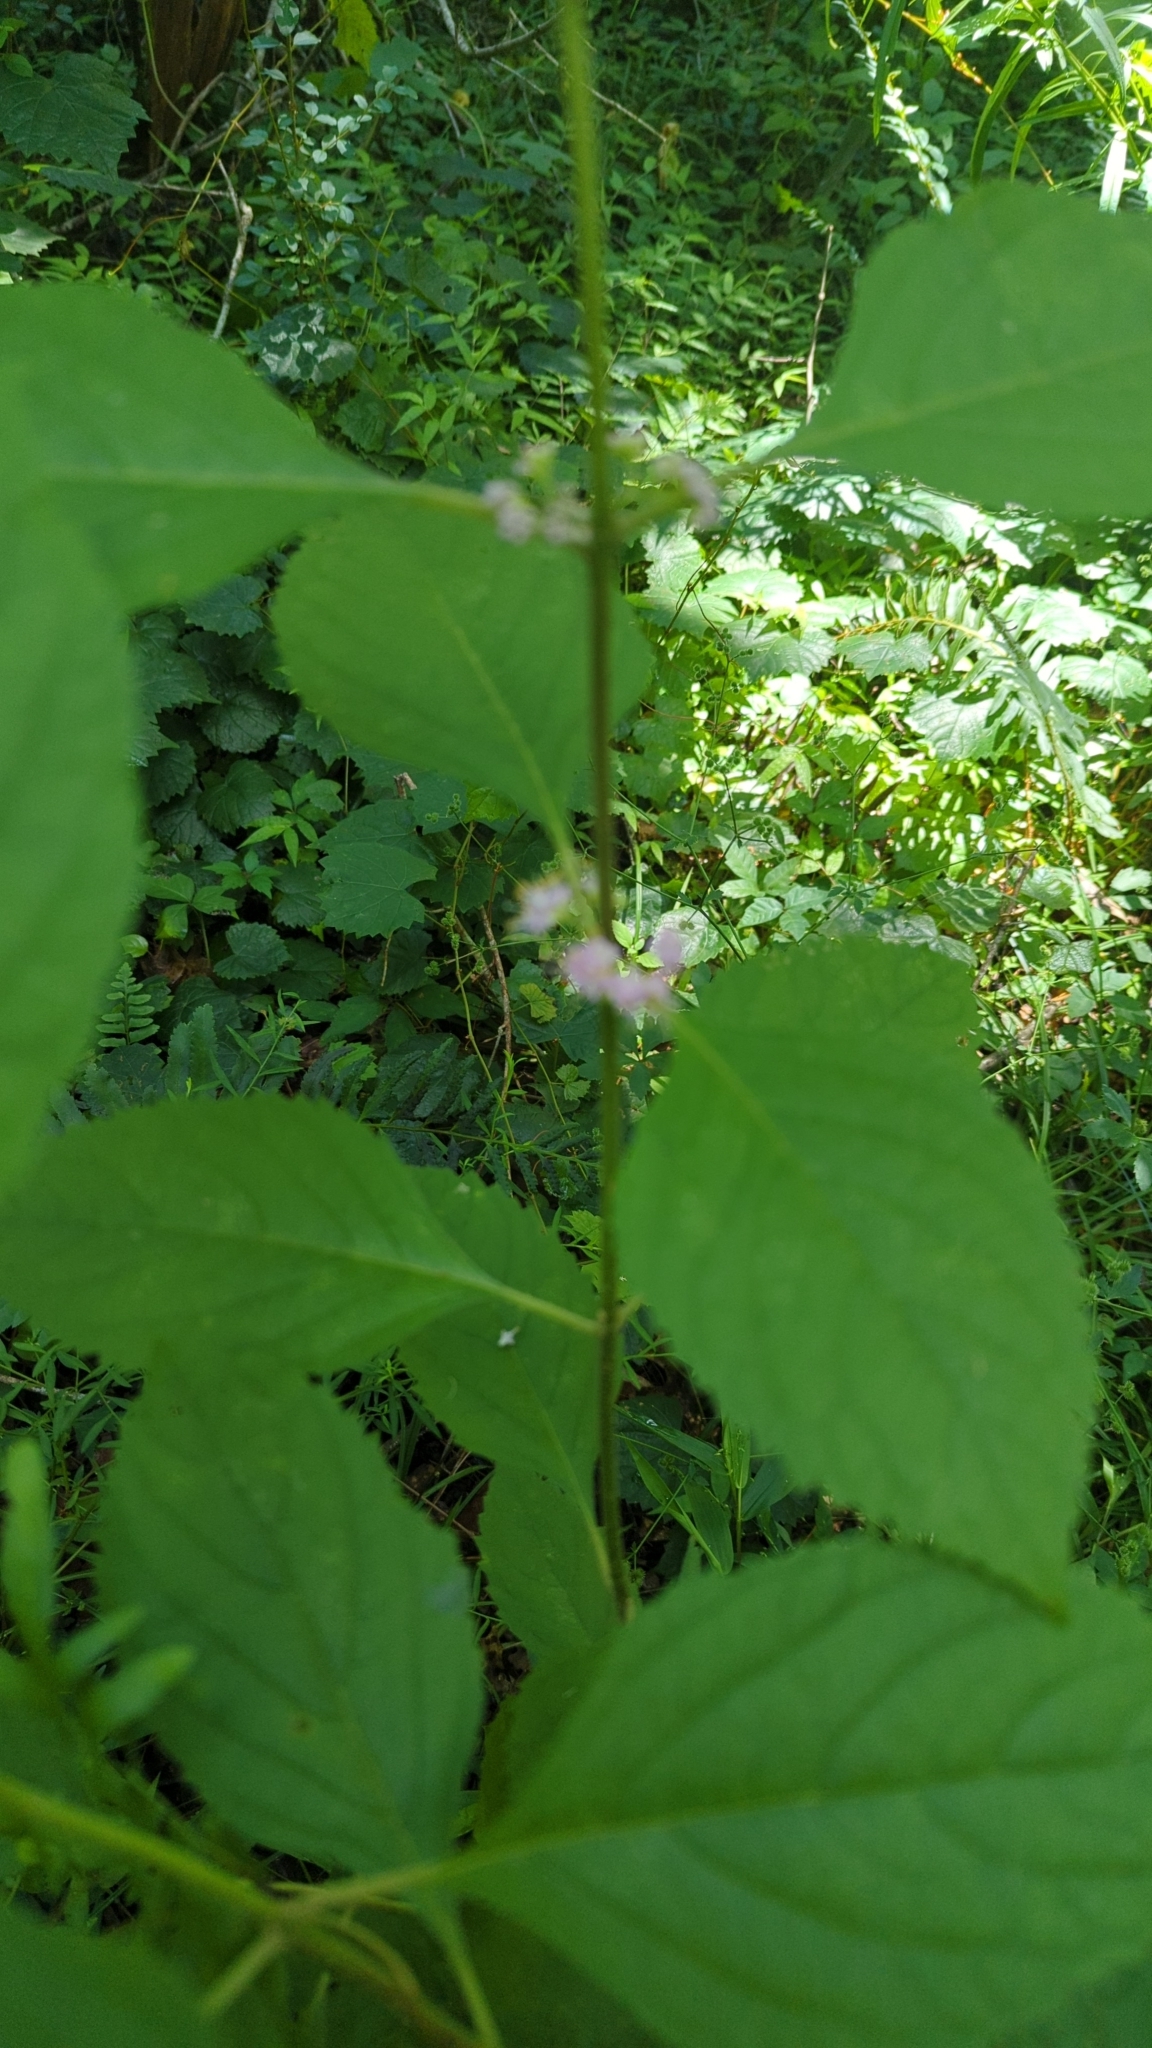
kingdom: Plantae
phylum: Tracheophyta
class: Magnoliopsida
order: Lamiales
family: Lamiaceae
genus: Callicarpa
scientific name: Callicarpa americana
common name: American beautyberry
